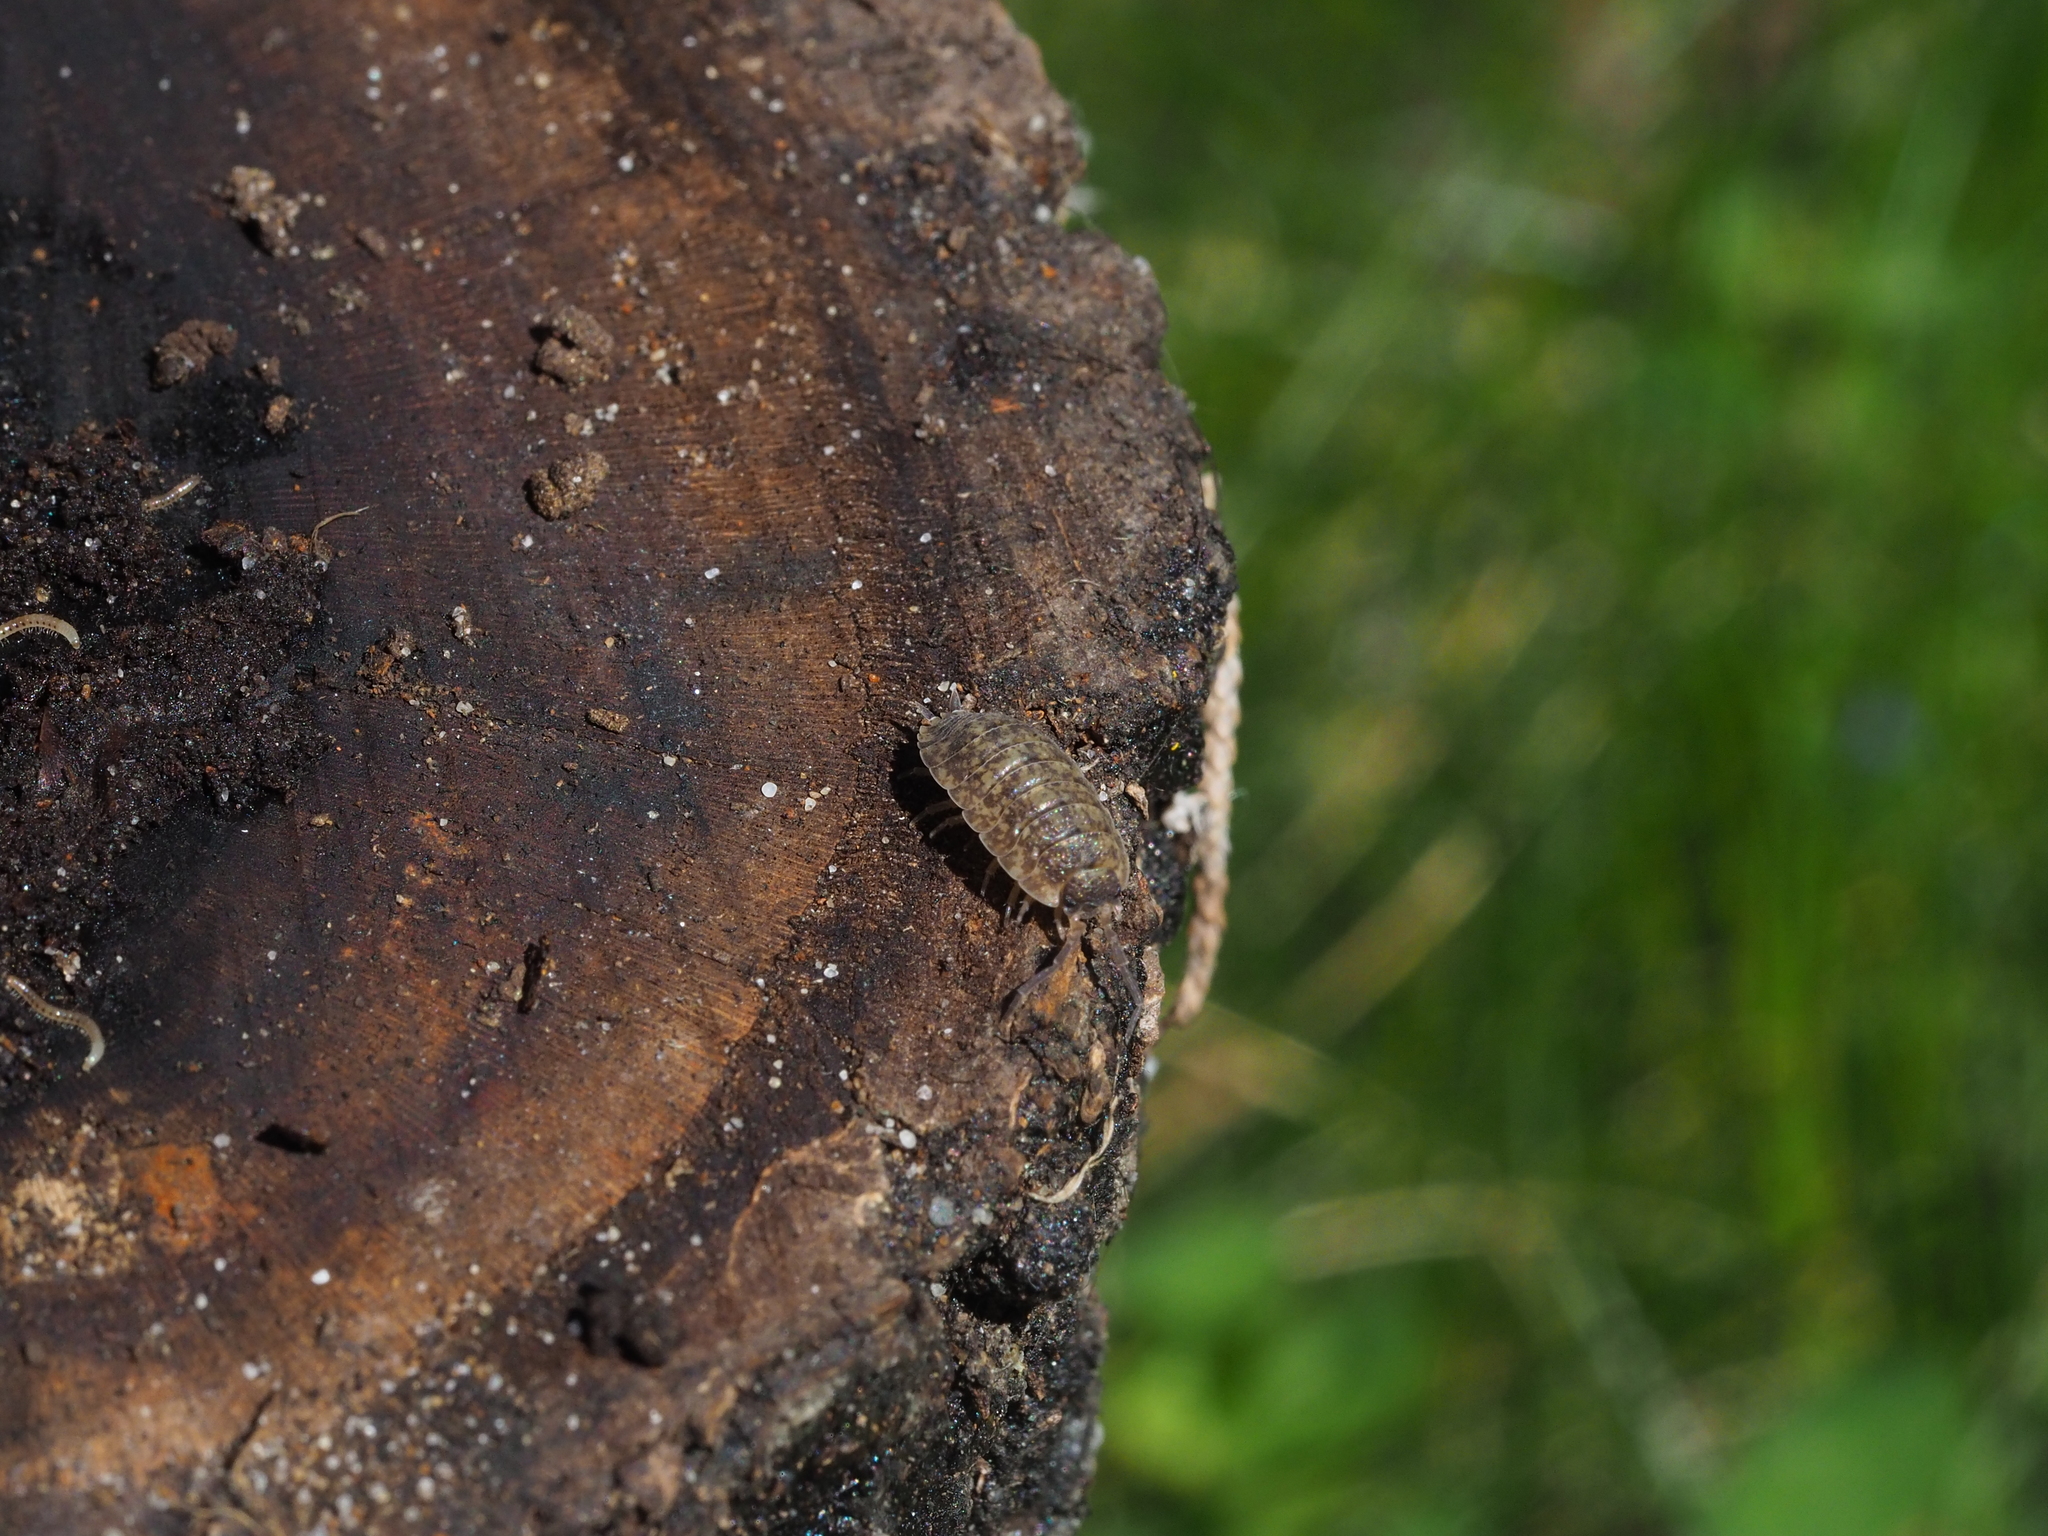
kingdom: Animalia
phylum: Arthropoda
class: Malacostraca
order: Isopoda
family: Porcellionidae
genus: Porcellio
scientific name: Porcellio scaber
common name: Common rough woodlouse
